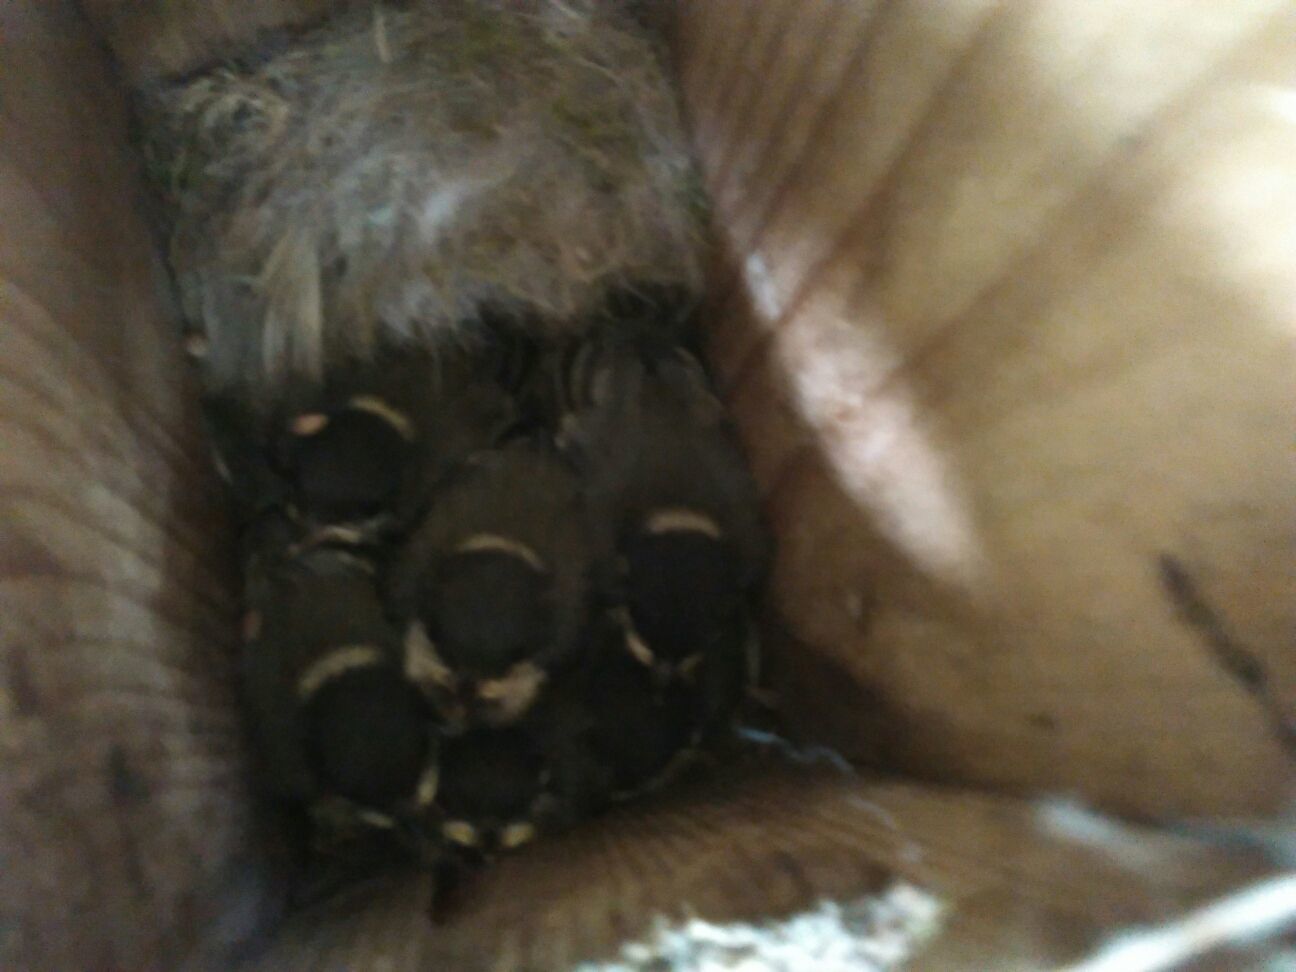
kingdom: Animalia
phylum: Chordata
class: Aves
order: Passeriformes
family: Paridae
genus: Parus
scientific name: Parus major
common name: Great tit
